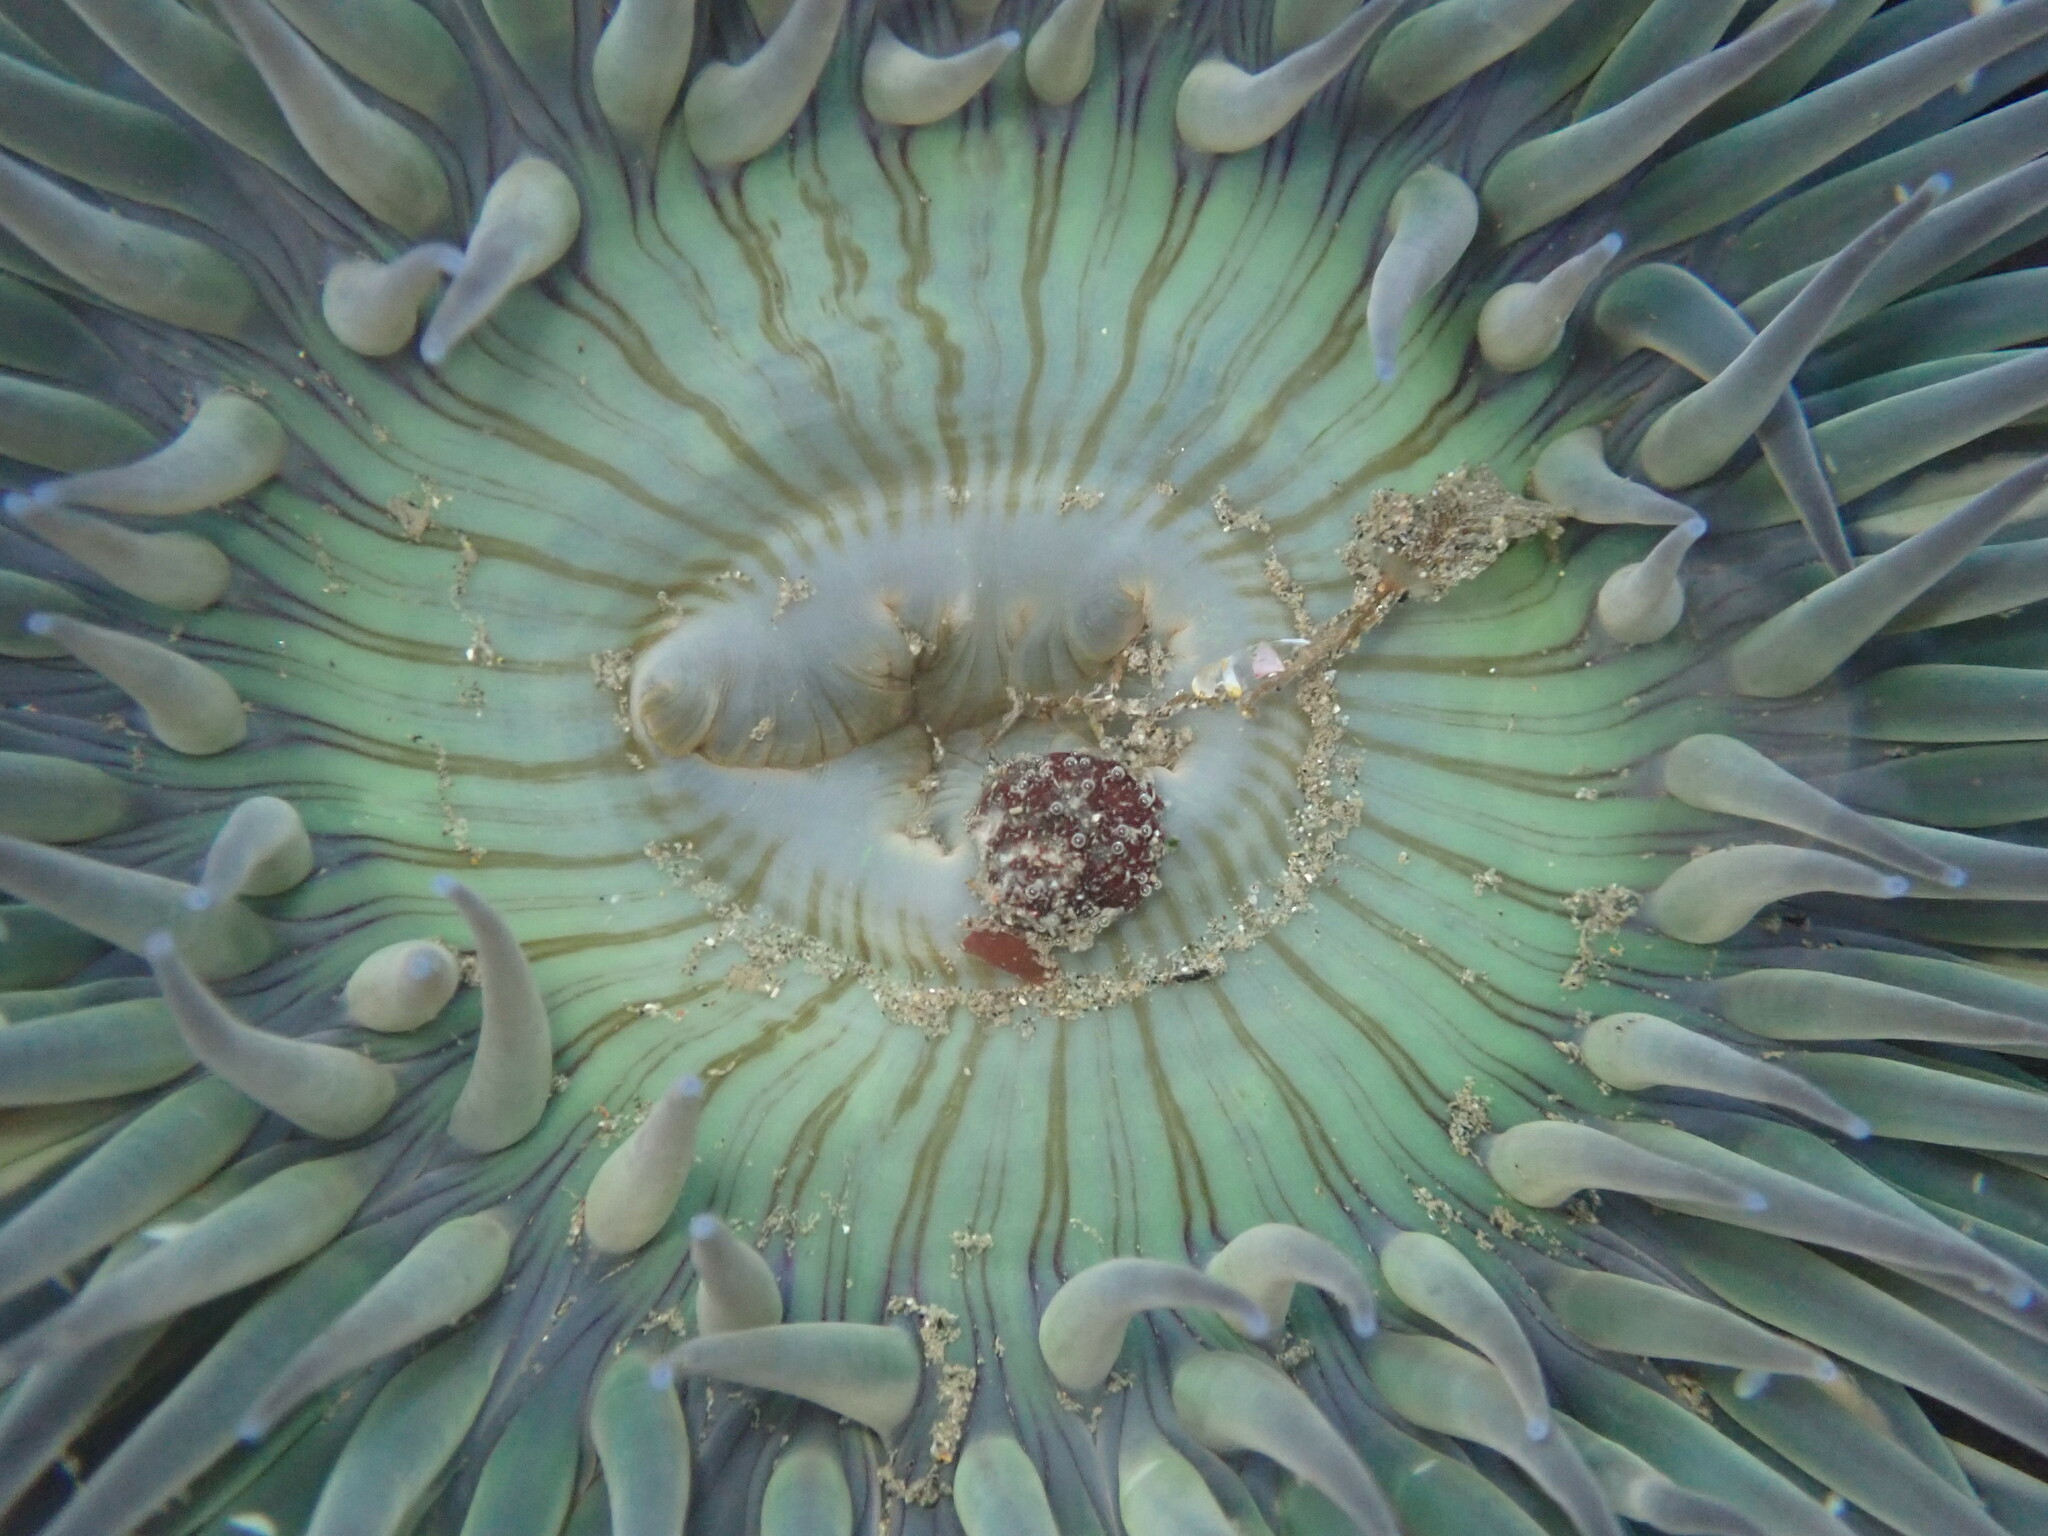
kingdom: Animalia
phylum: Cnidaria
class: Anthozoa
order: Actiniaria
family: Actiniidae
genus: Anthopleura
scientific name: Anthopleura sola
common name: Sun anemone
